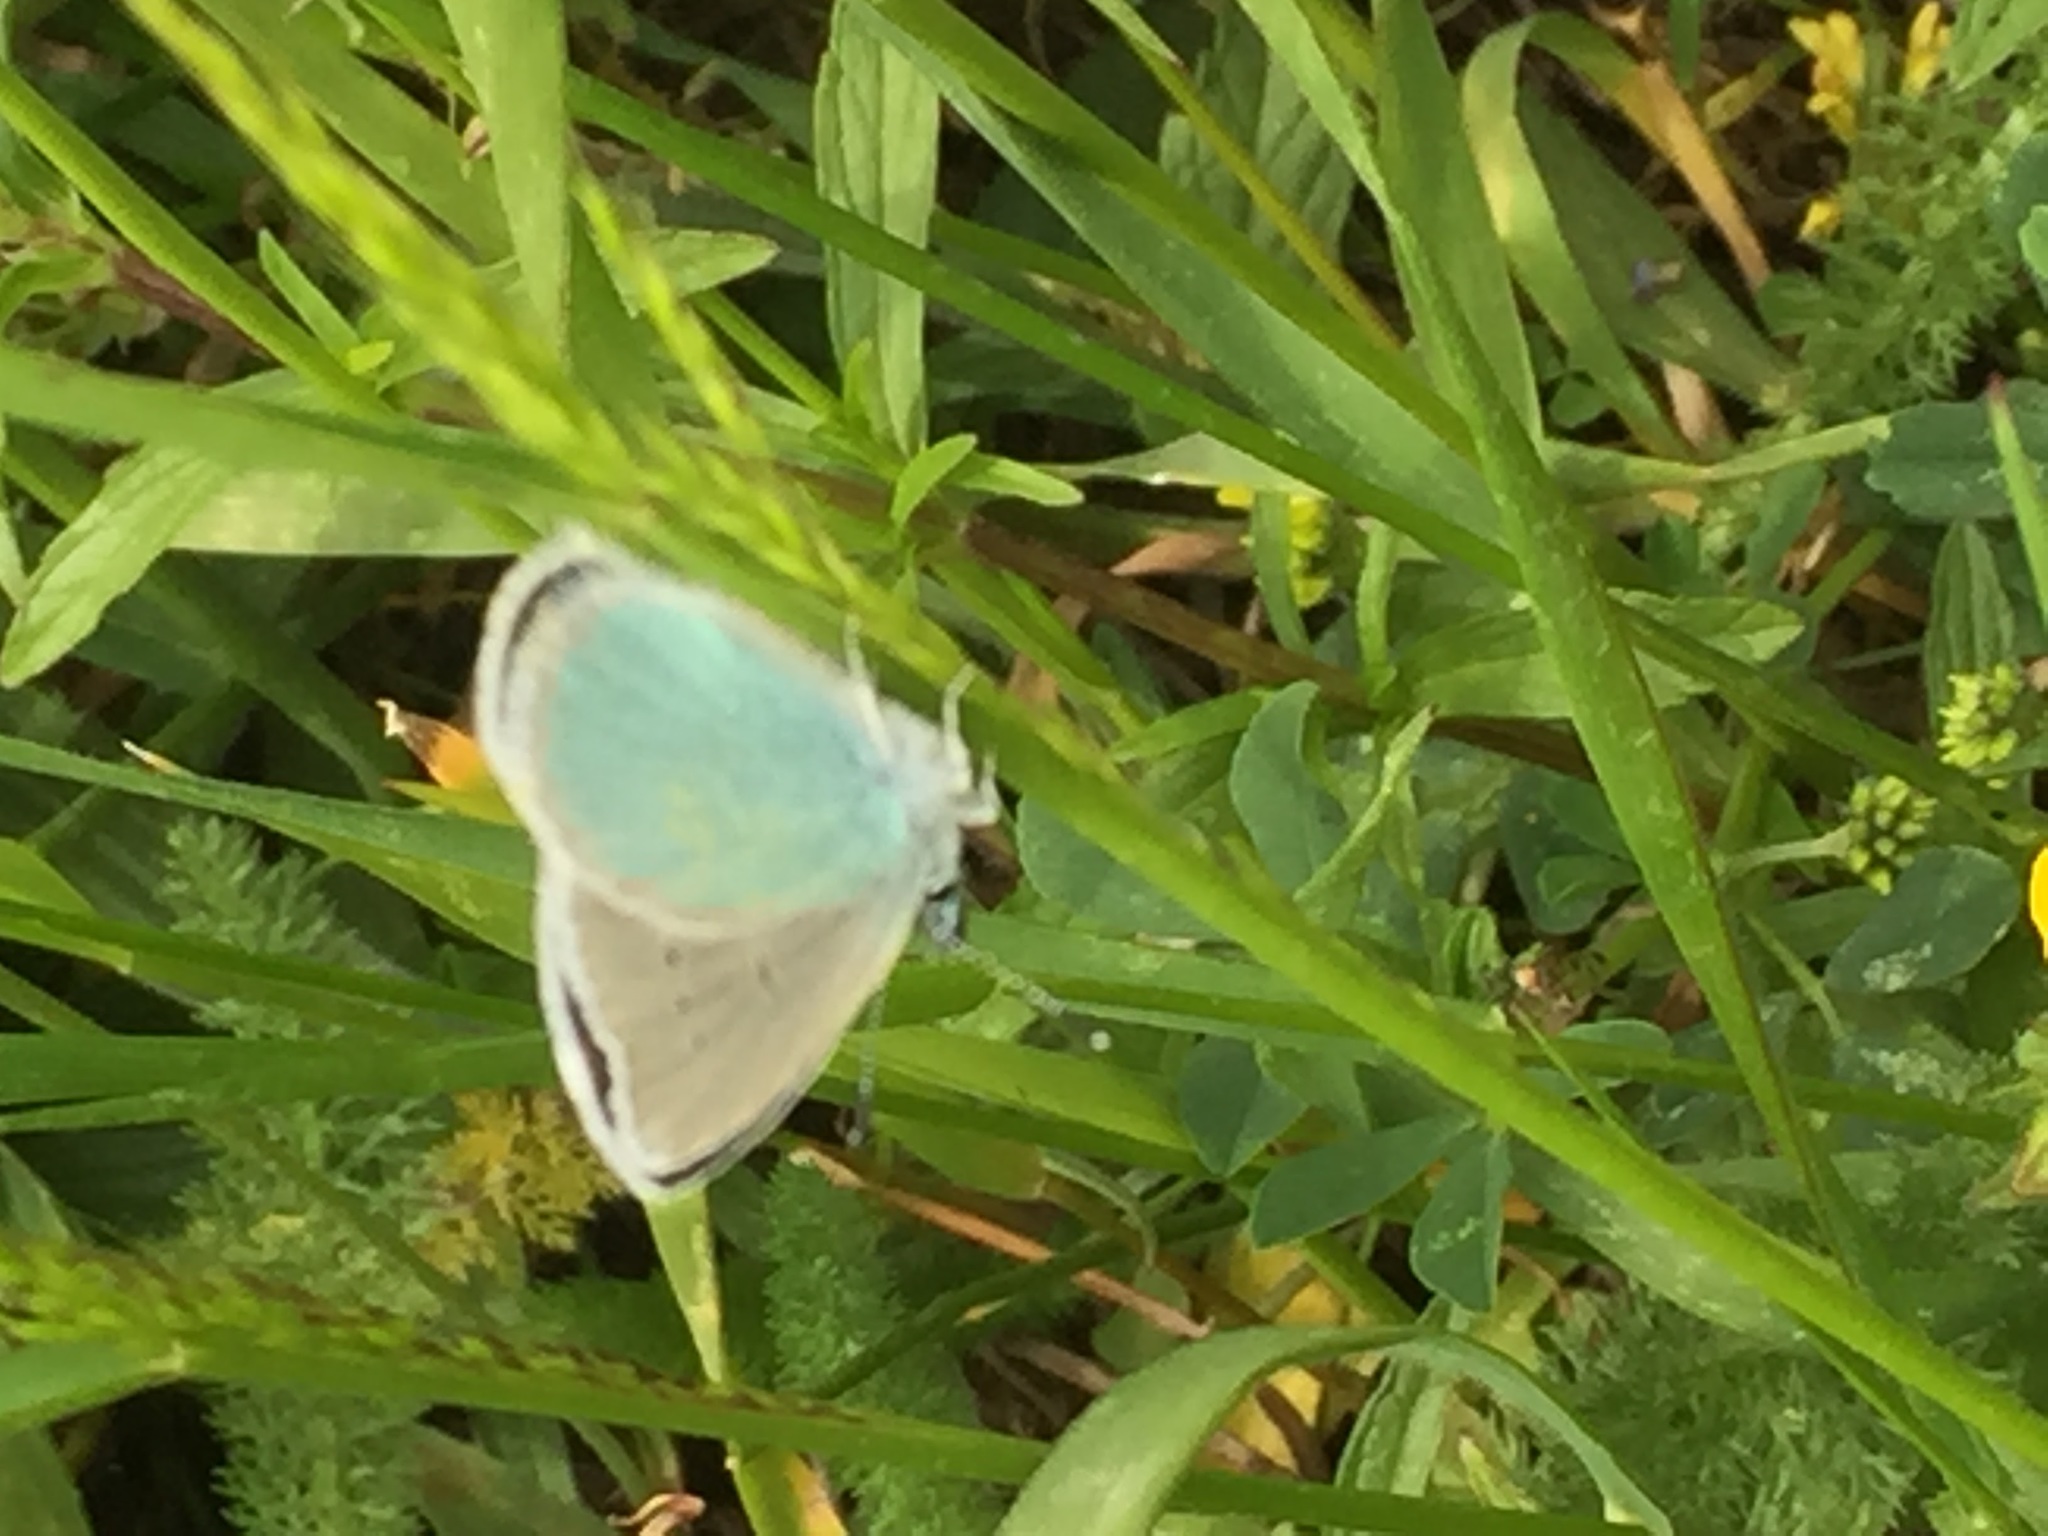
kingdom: Animalia
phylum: Arthropoda
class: Insecta
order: Lepidoptera
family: Lycaenidae
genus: Agrodiaetus
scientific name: Agrodiaetus Neolysandra coelestina
